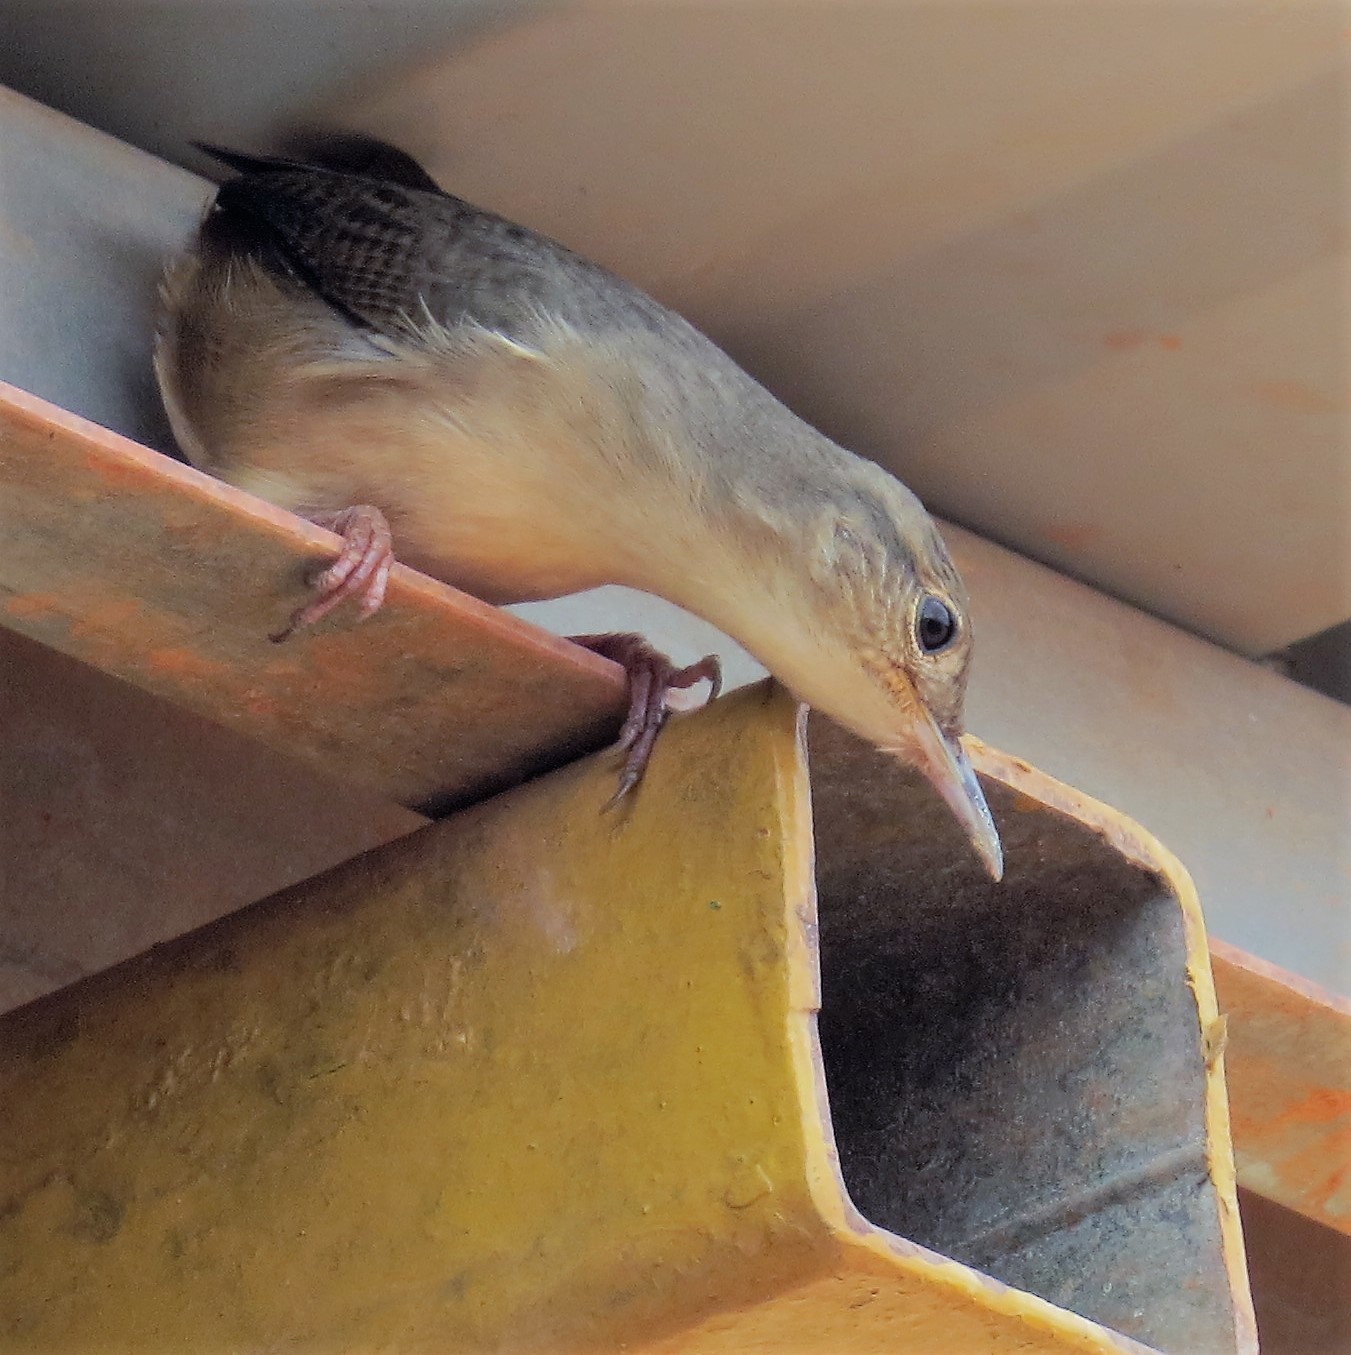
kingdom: Animalia
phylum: Chordata
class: Aves
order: Passeriformes
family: Troglodytidae
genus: Troglodytes
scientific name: Troglodytes aedon
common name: House wren
